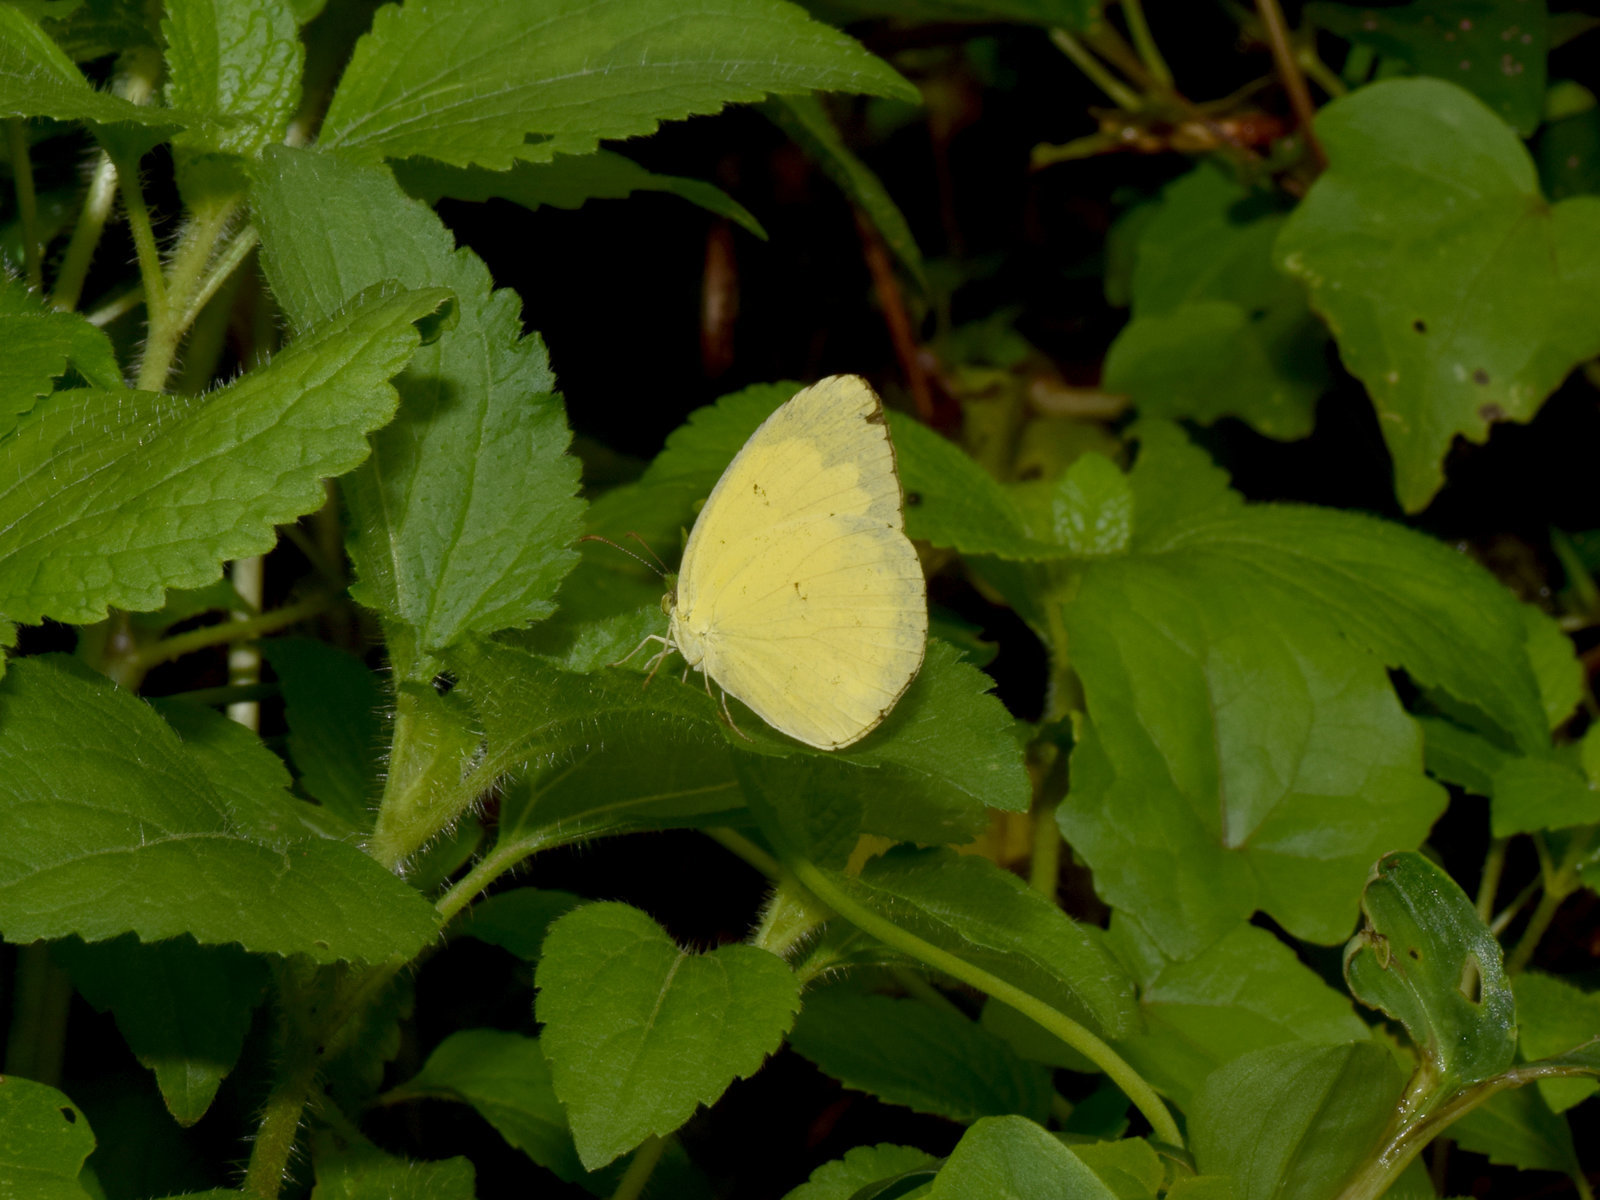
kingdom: Animalia
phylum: Arthropoda
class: Insecta
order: Lepidoptera
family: Pieridae
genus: Eurema
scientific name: Eurema hecabe
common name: Pale grass yellow
